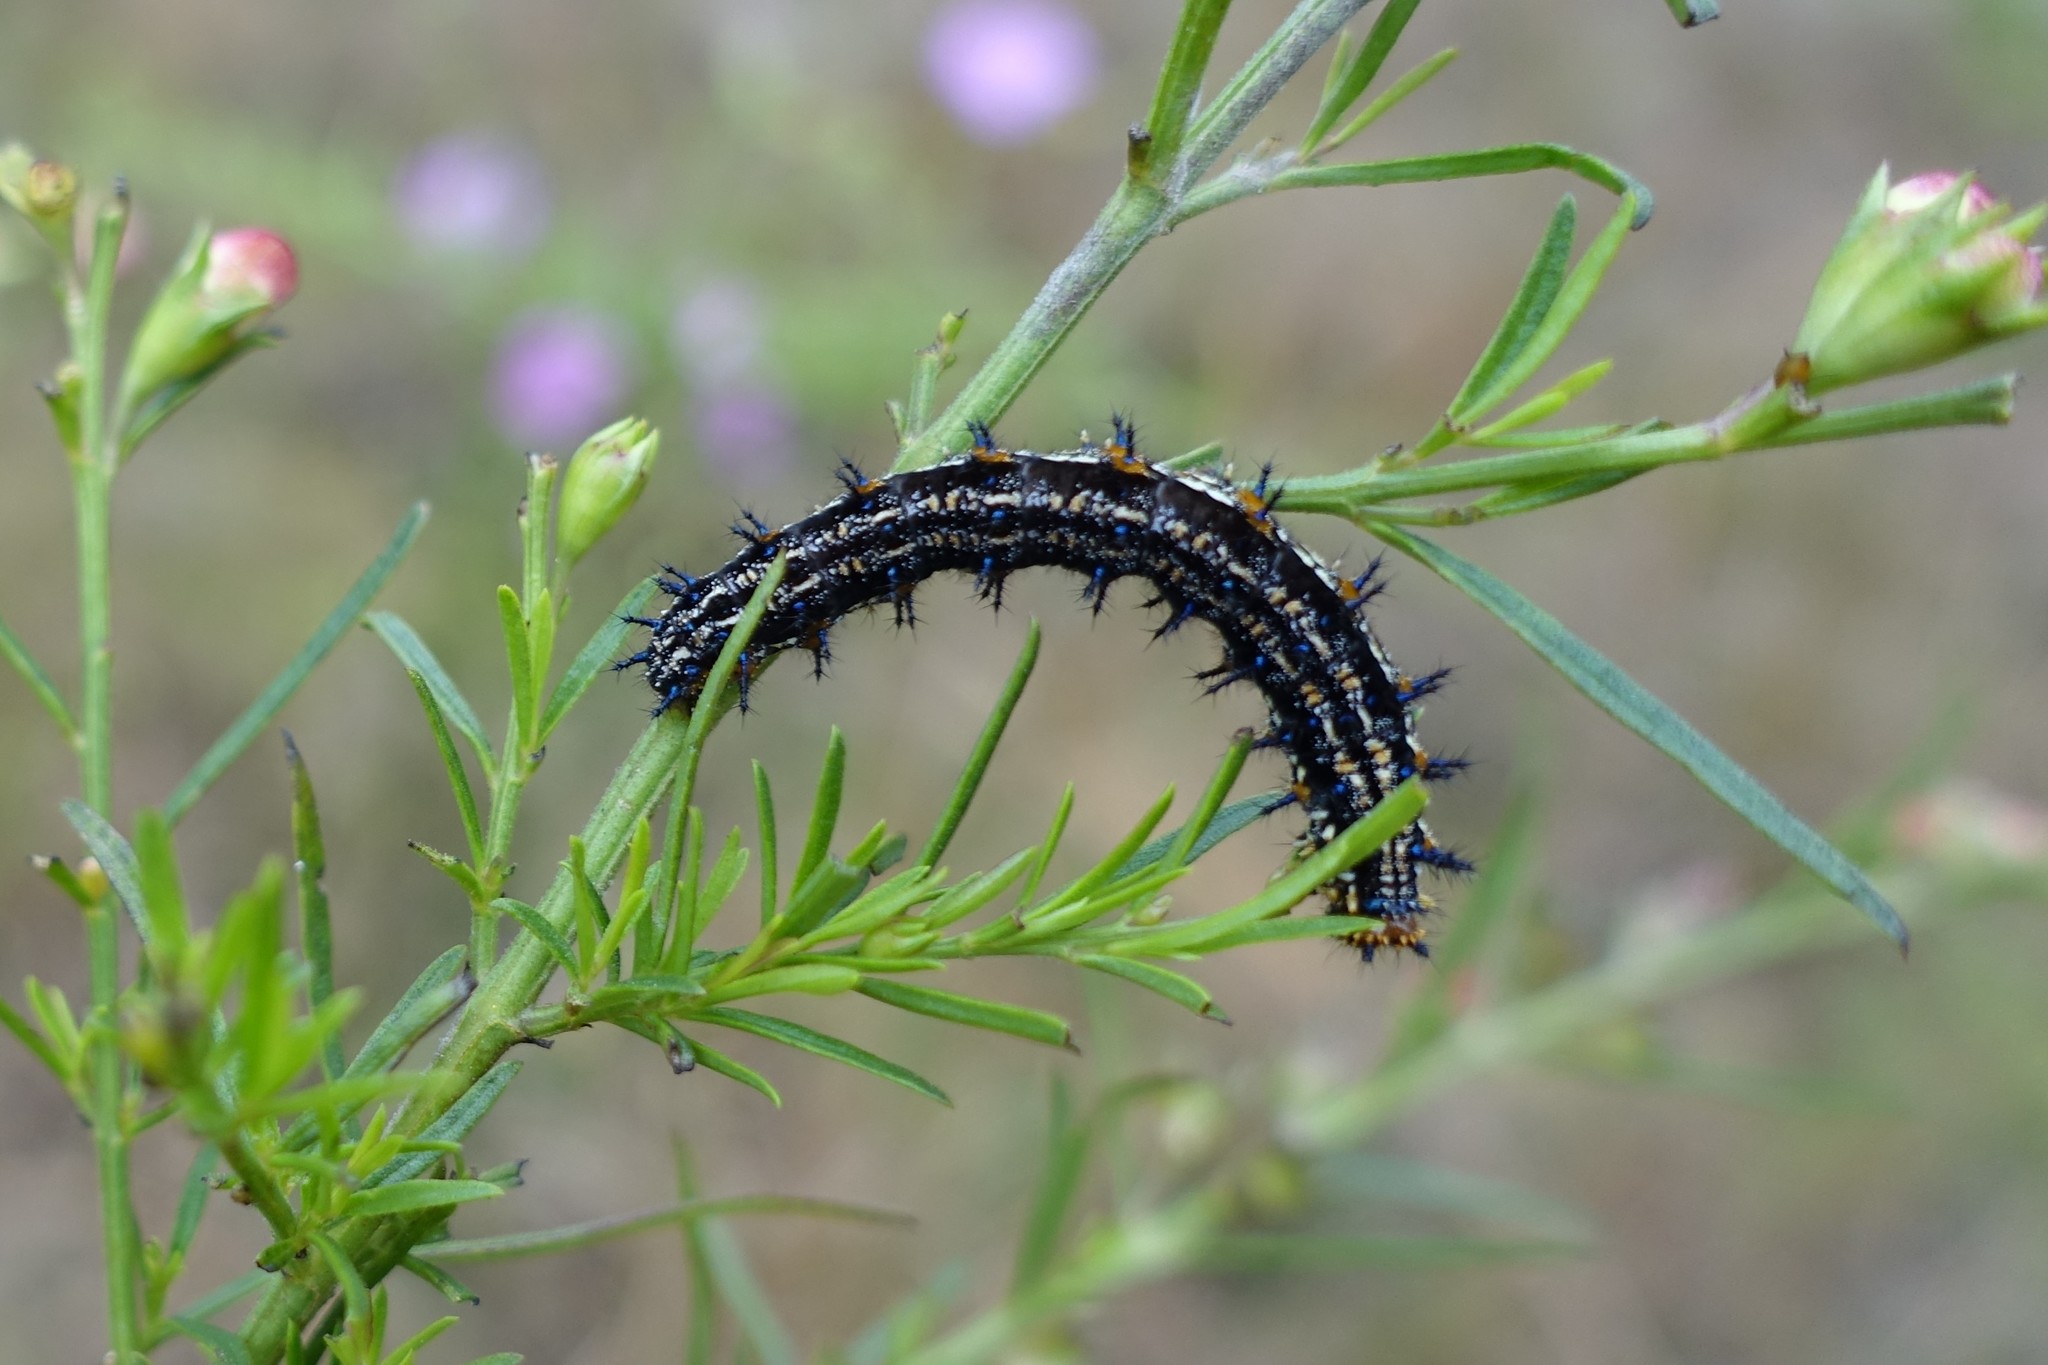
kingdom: Animalia
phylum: Arthropoda
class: Insecta
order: Lepidoptera
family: Nymphalidae
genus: Junonia
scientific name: Junonia coenia
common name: Common buckeye
